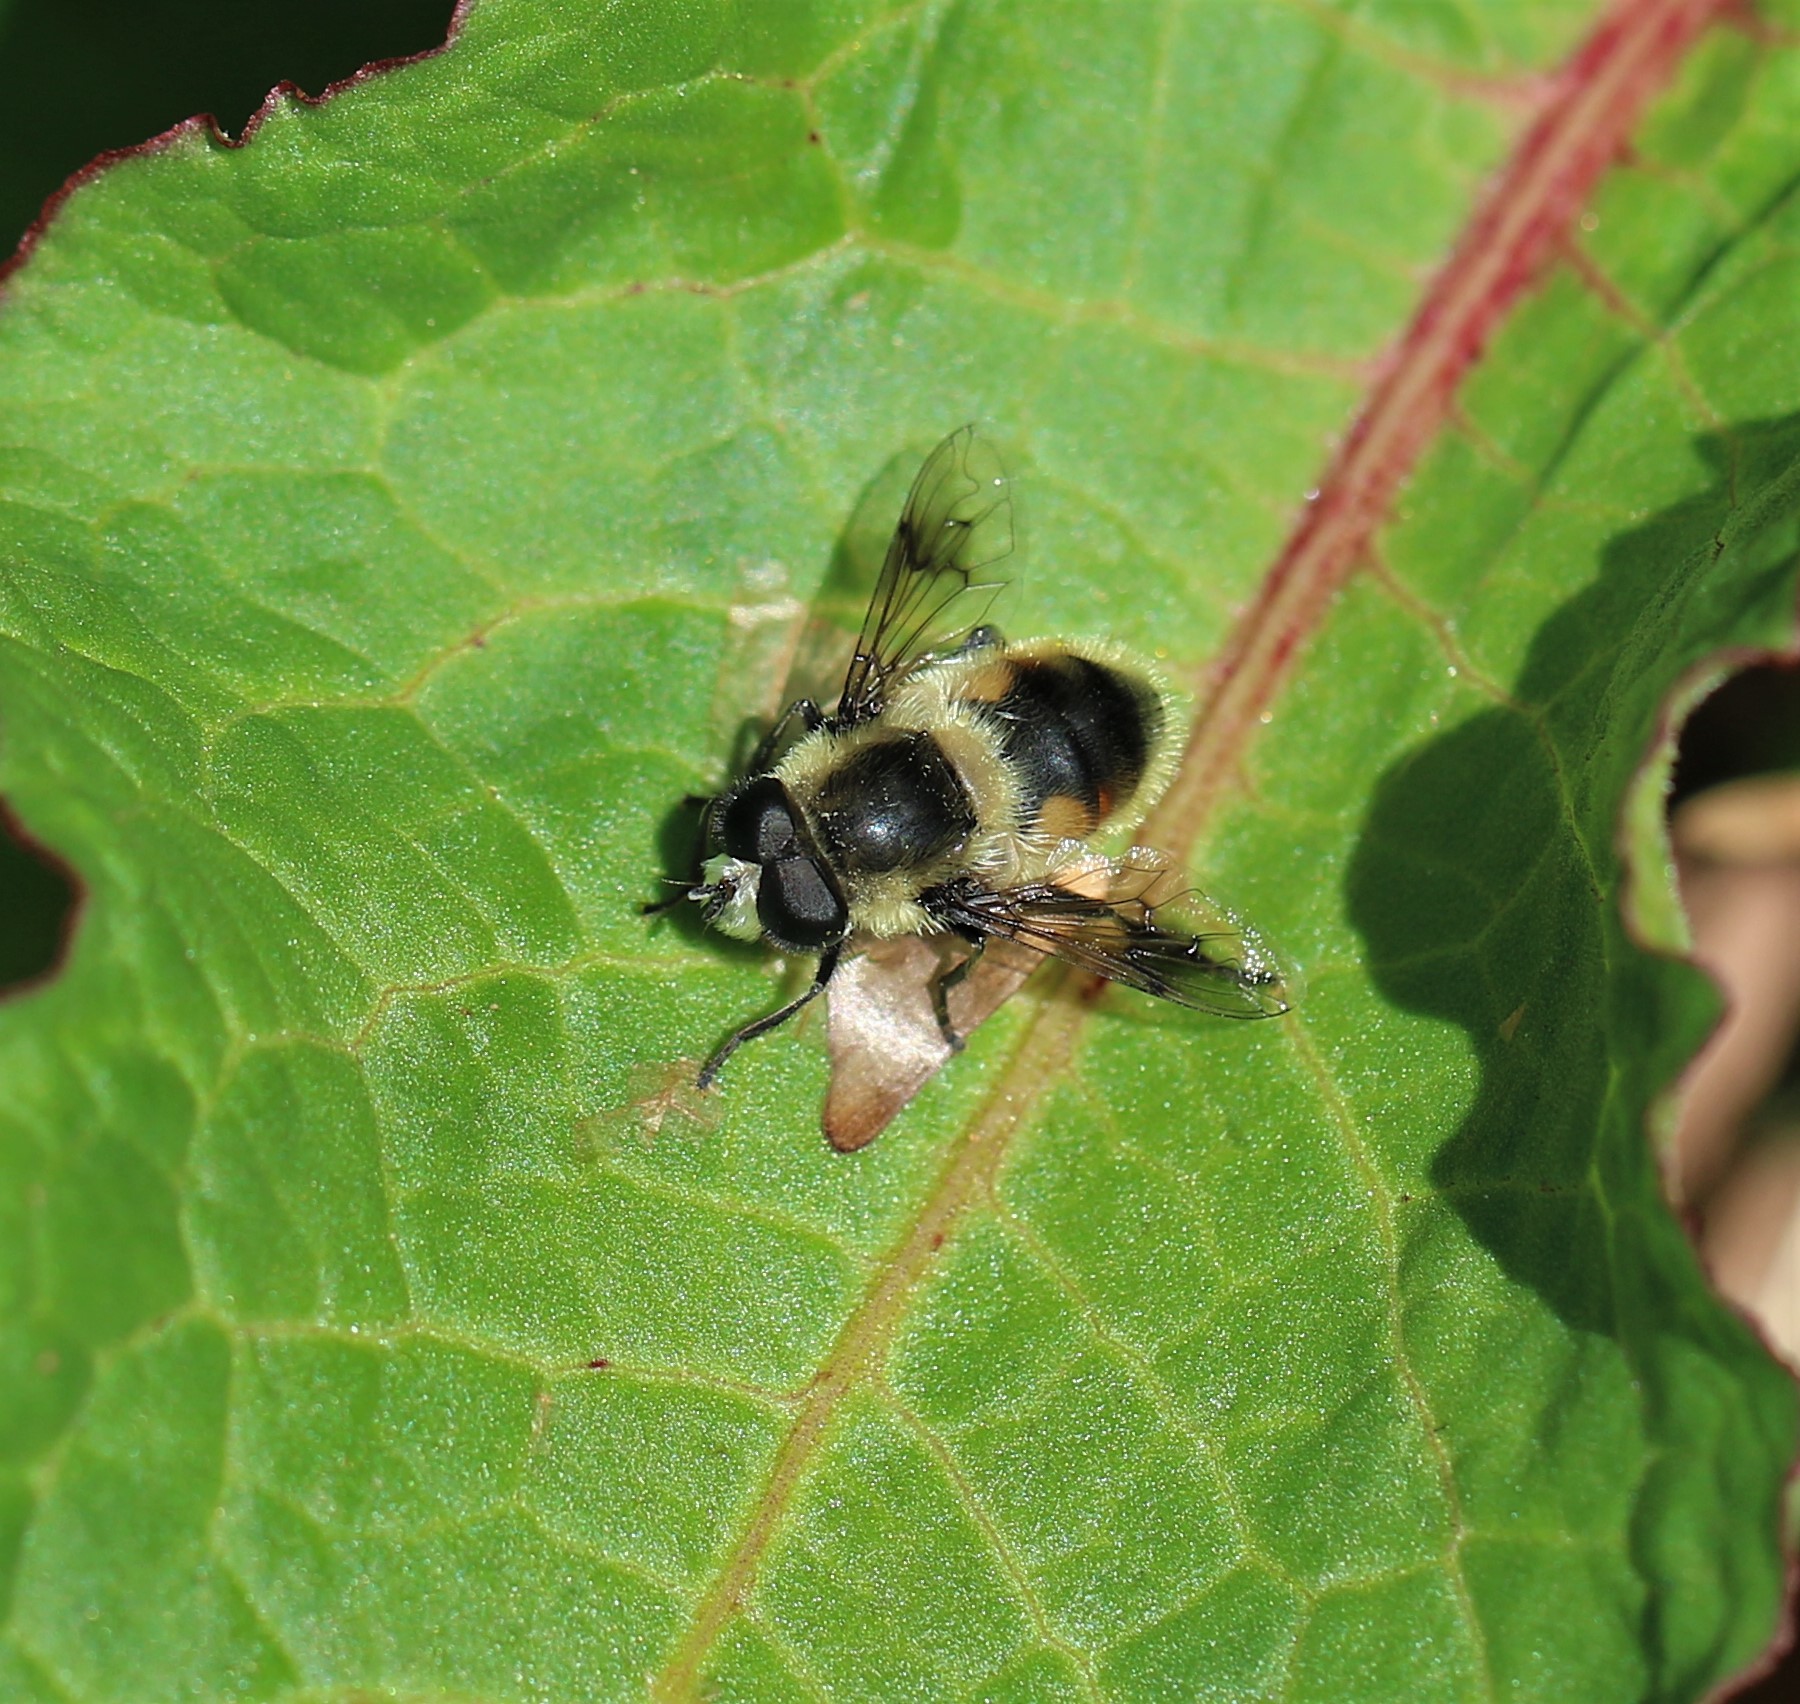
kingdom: Animalia
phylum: Arthropoda
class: Insecta
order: Diptera
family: Syrphidae
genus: Eristalis
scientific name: Eristalis anthophorina
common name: Orange-spotted drone fly
